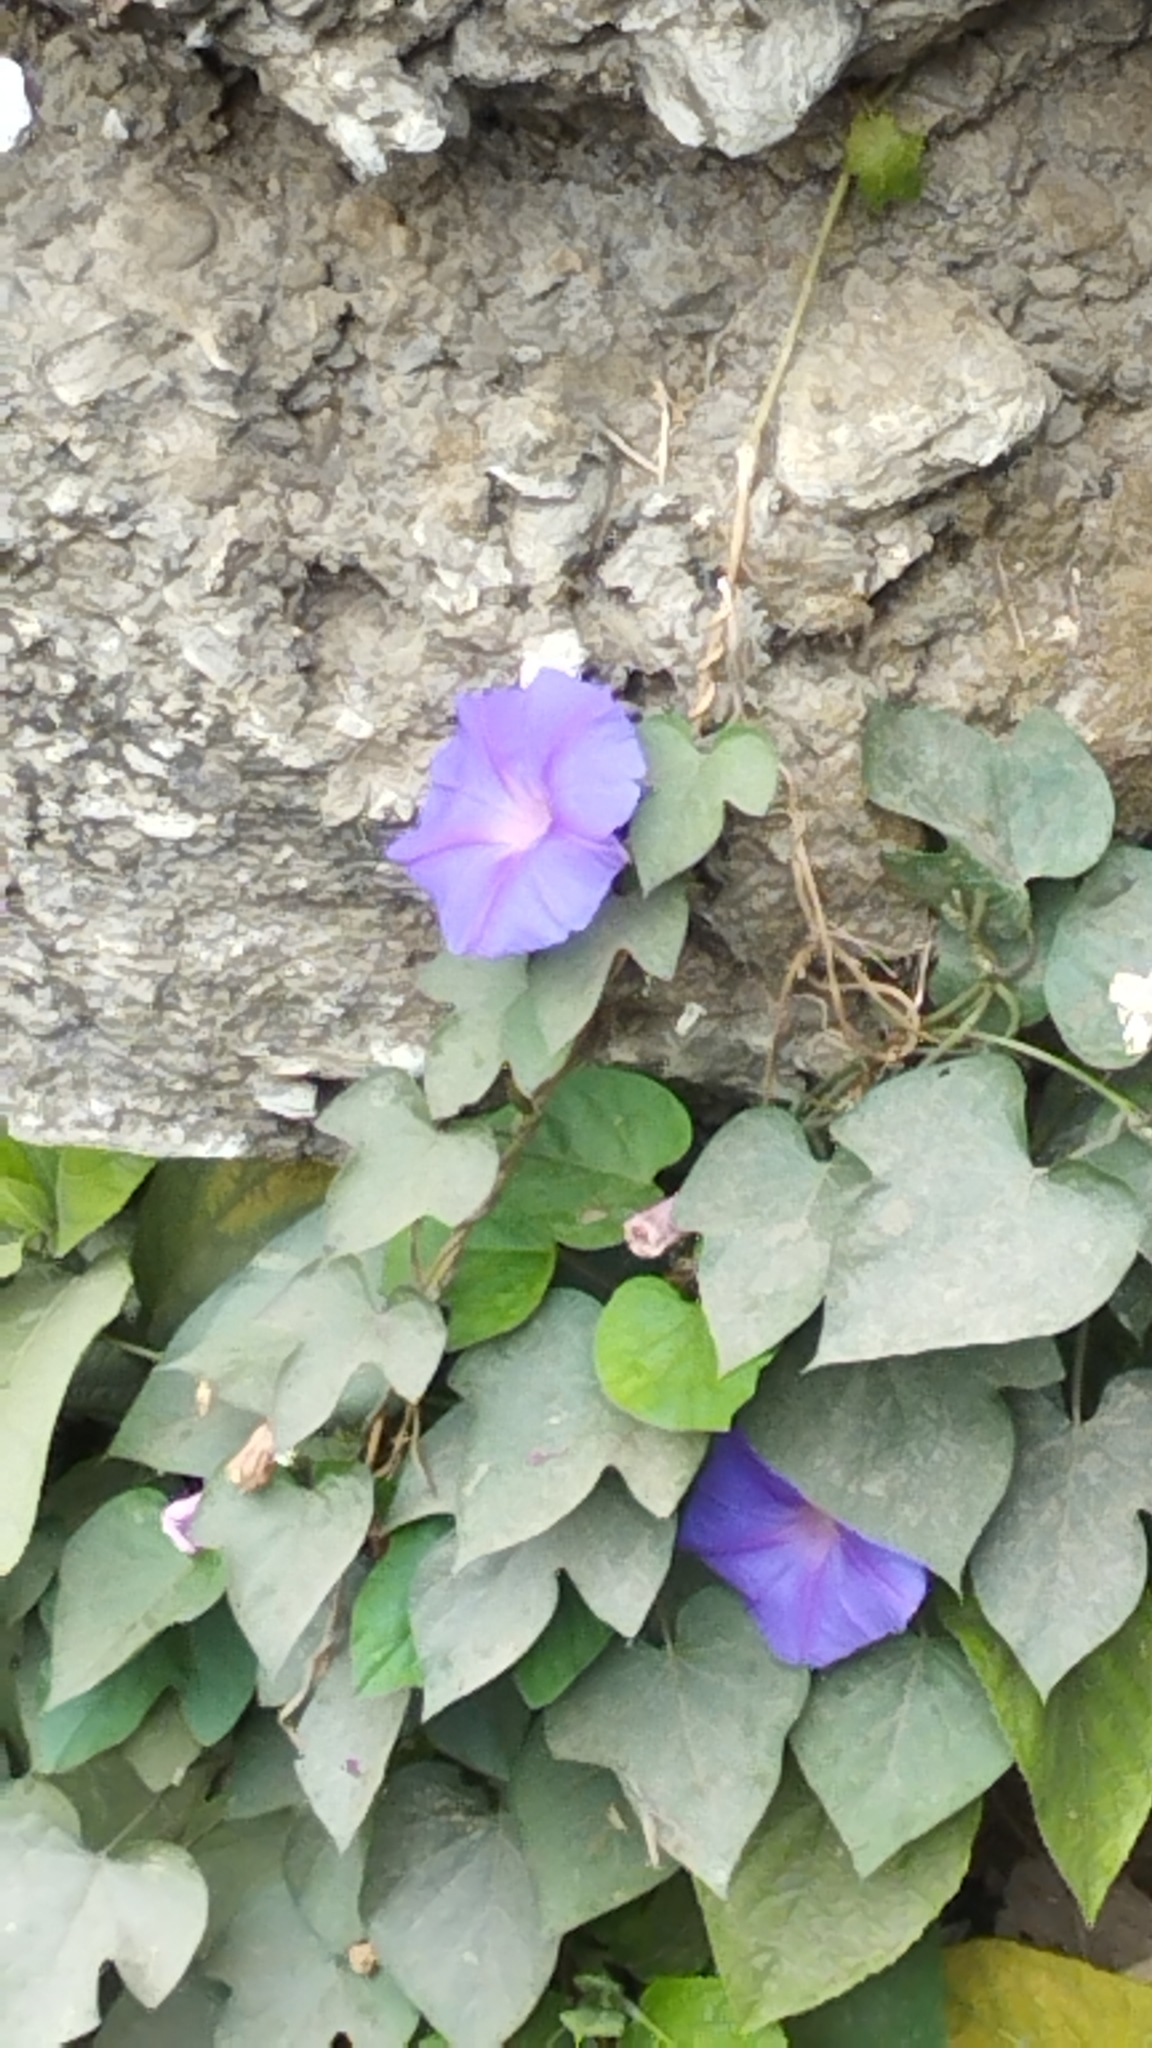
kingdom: Plantae
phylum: Tracheophyta
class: Magnoliopsida
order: Solanales
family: Convolvulaceae
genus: Ipomoea
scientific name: Ipomoea indica
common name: Blue dawnflower
